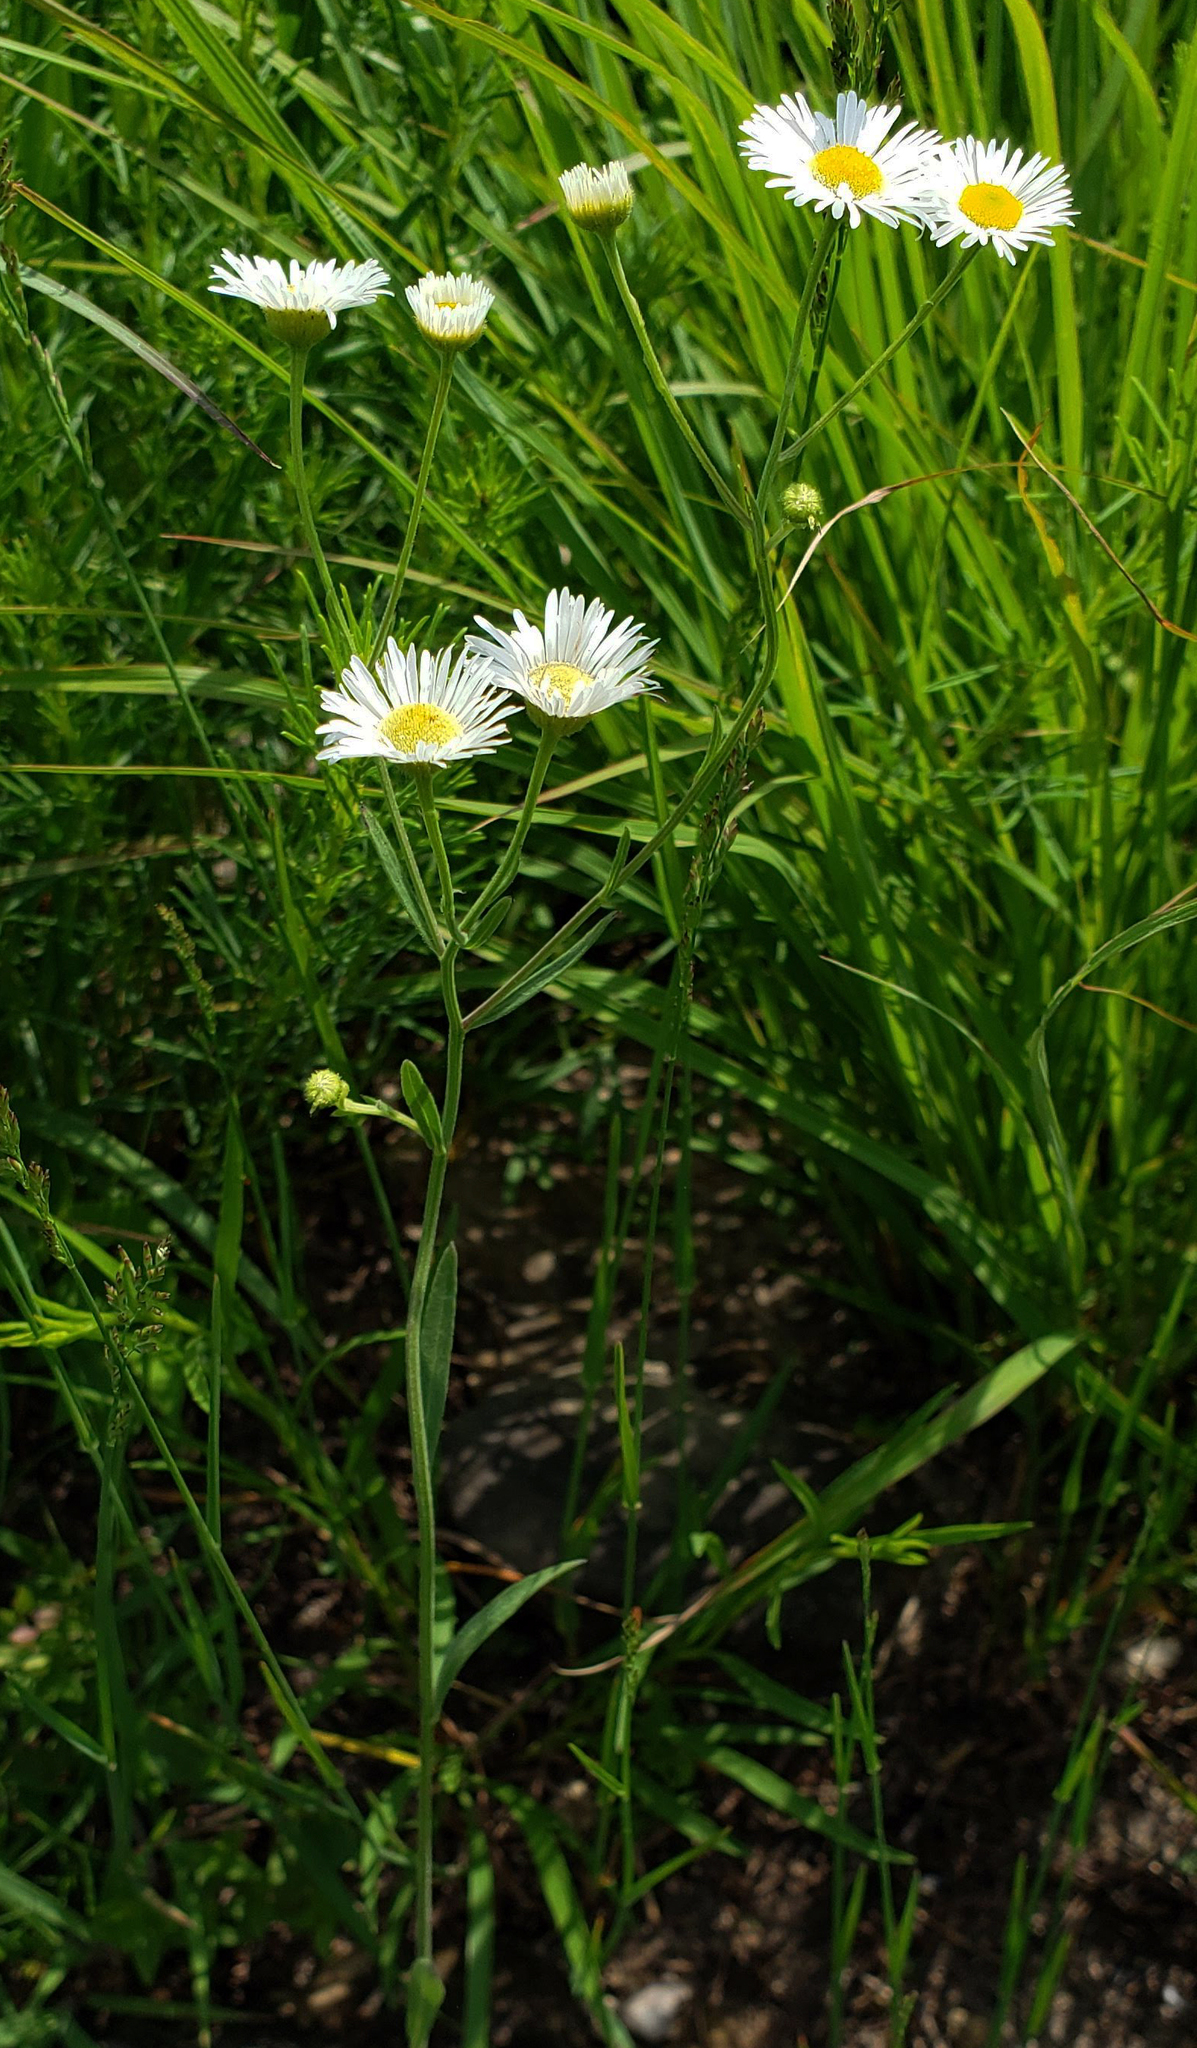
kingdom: Plantae
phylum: Tracheophyta
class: Magnoliopsida
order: Asterales
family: Asteraceae
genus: Erigeron
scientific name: Erigeron strigosus
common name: Common eastern fleabane
